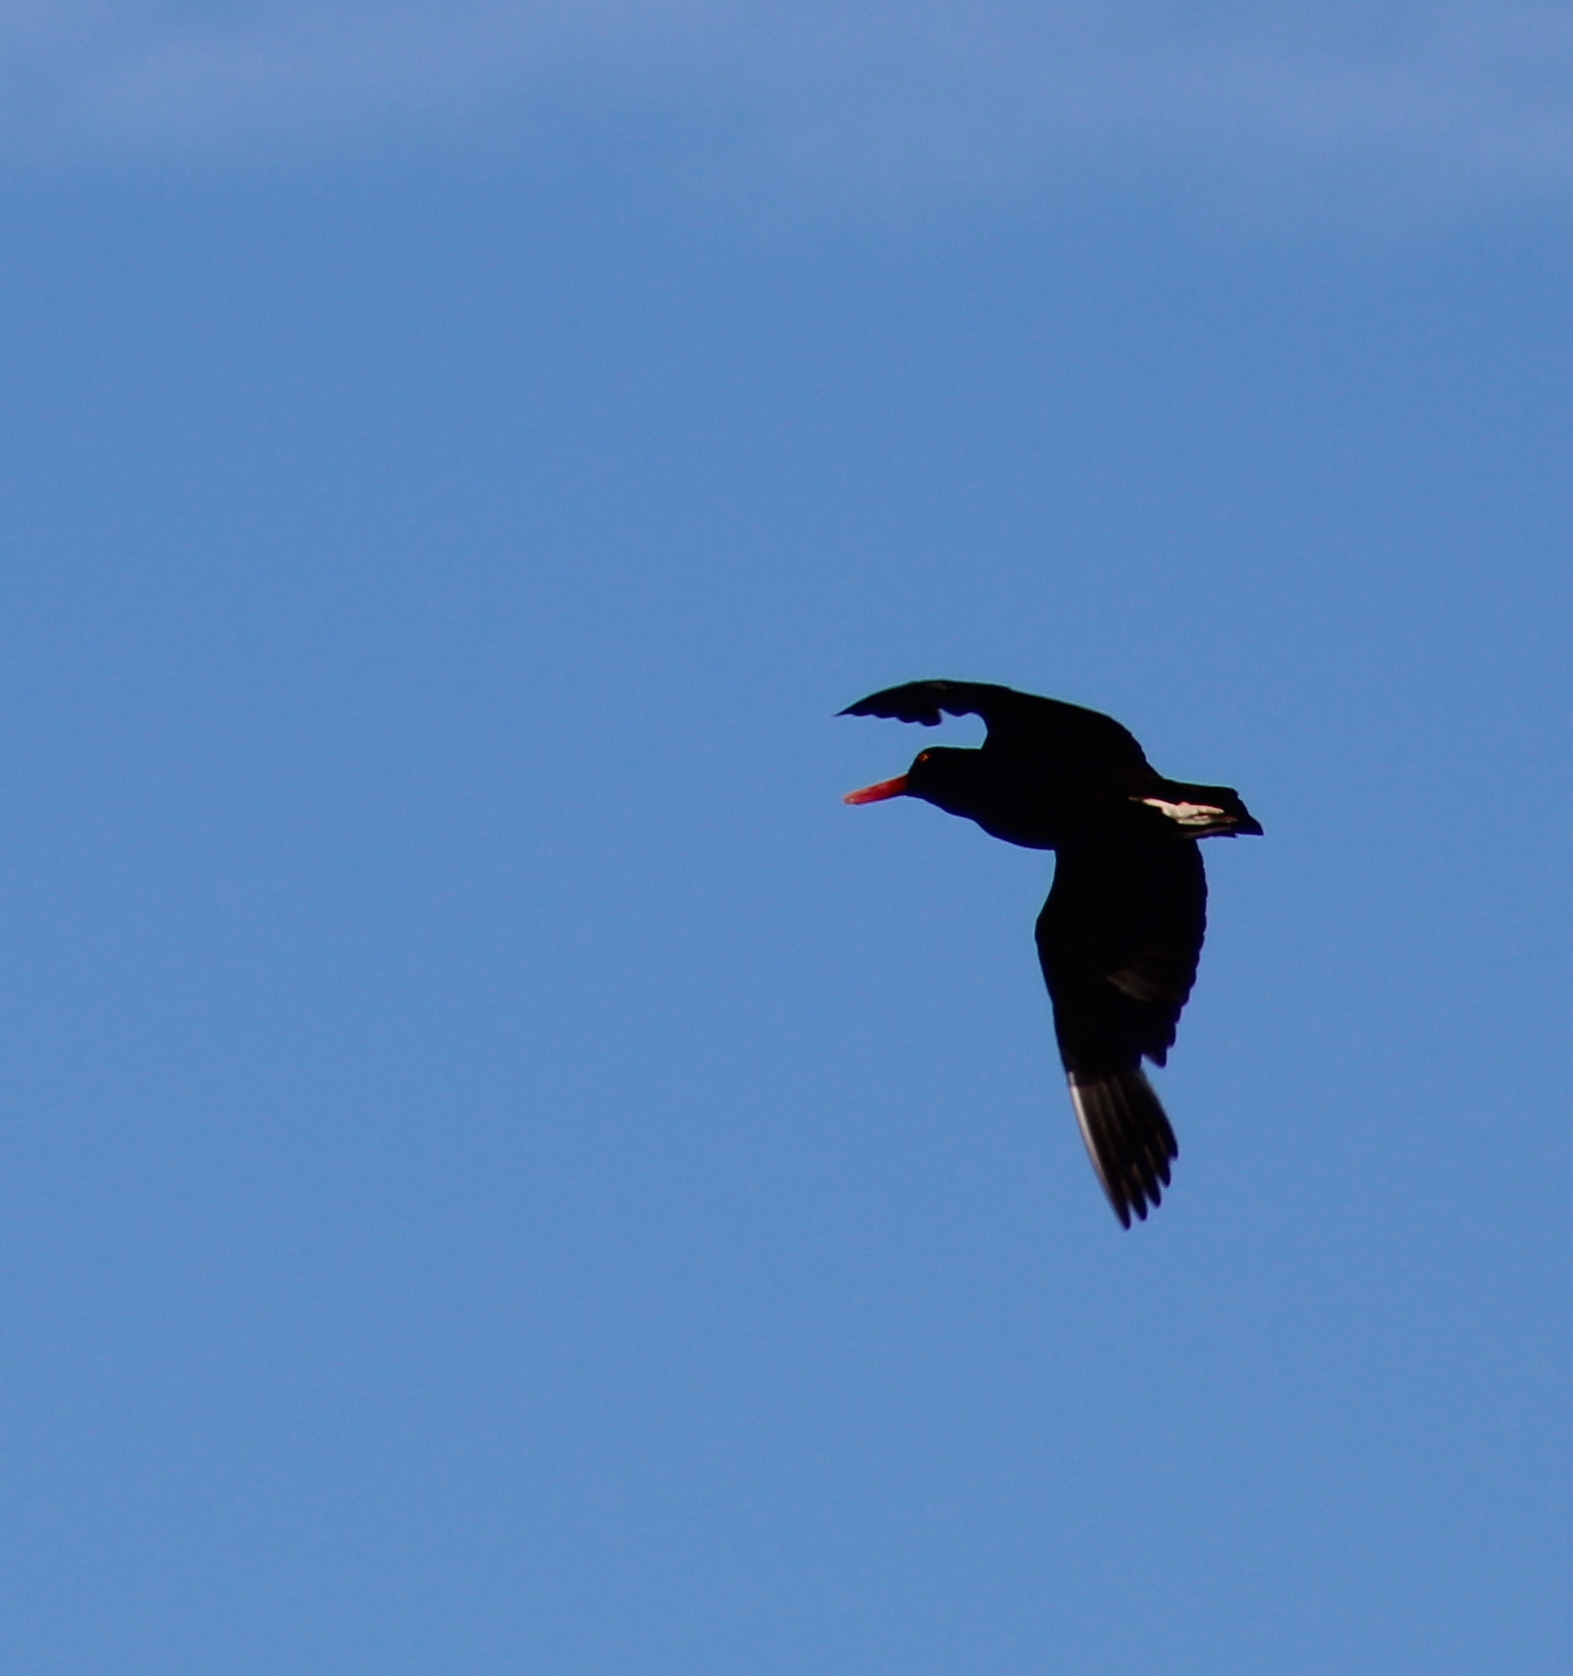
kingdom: Animalia
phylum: Chordata
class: Aves
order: Charadriiformes
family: Haematopodidae
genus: Haematopus
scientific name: Haematopus ater
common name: Blackish oystercatcher
